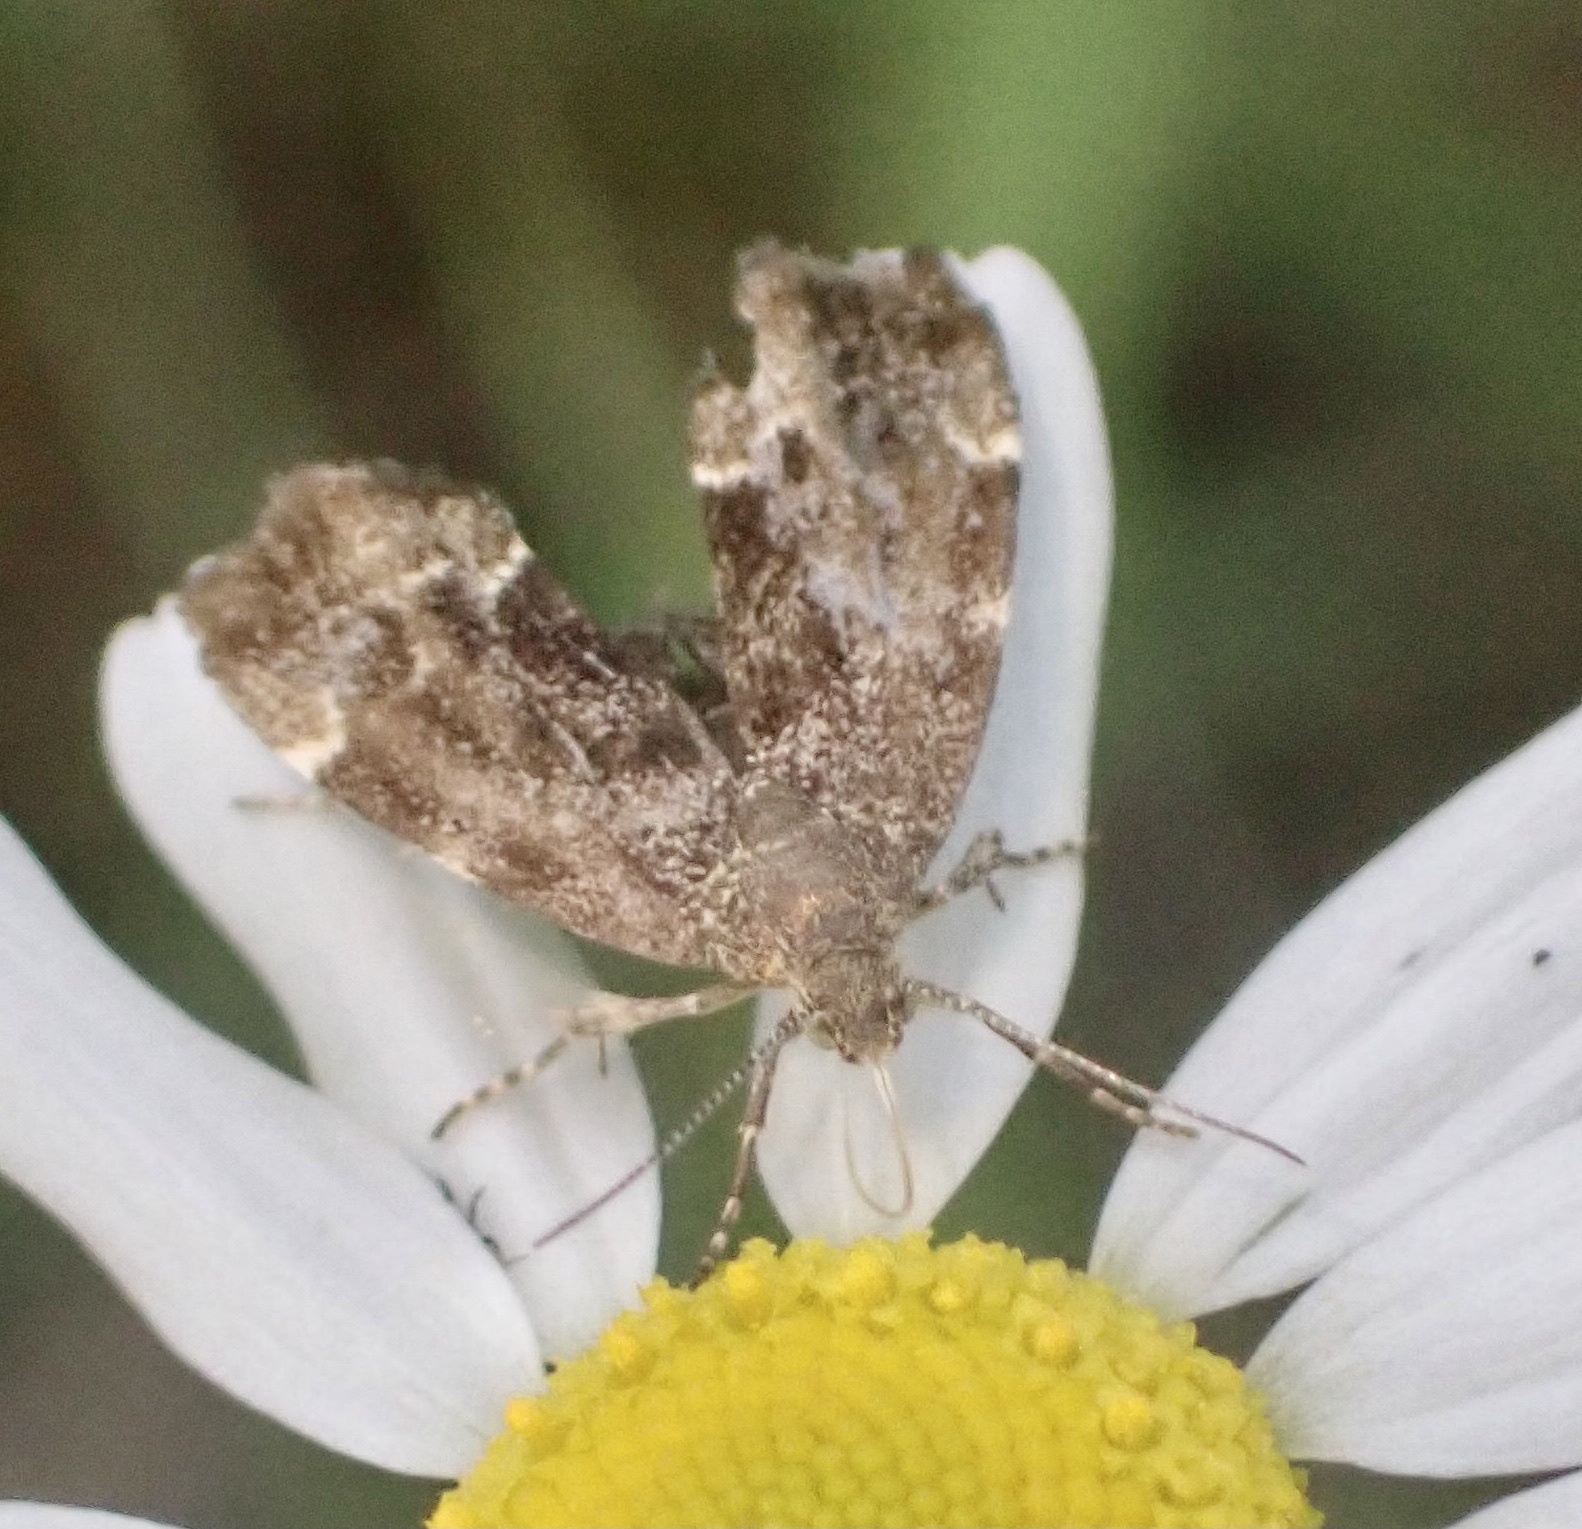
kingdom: Animalia
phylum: Arthropoda
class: Insecta
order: Lepidoptera
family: Choreutidae
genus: Anthophila
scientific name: Anthophila fabriciana
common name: Nettle-tap
